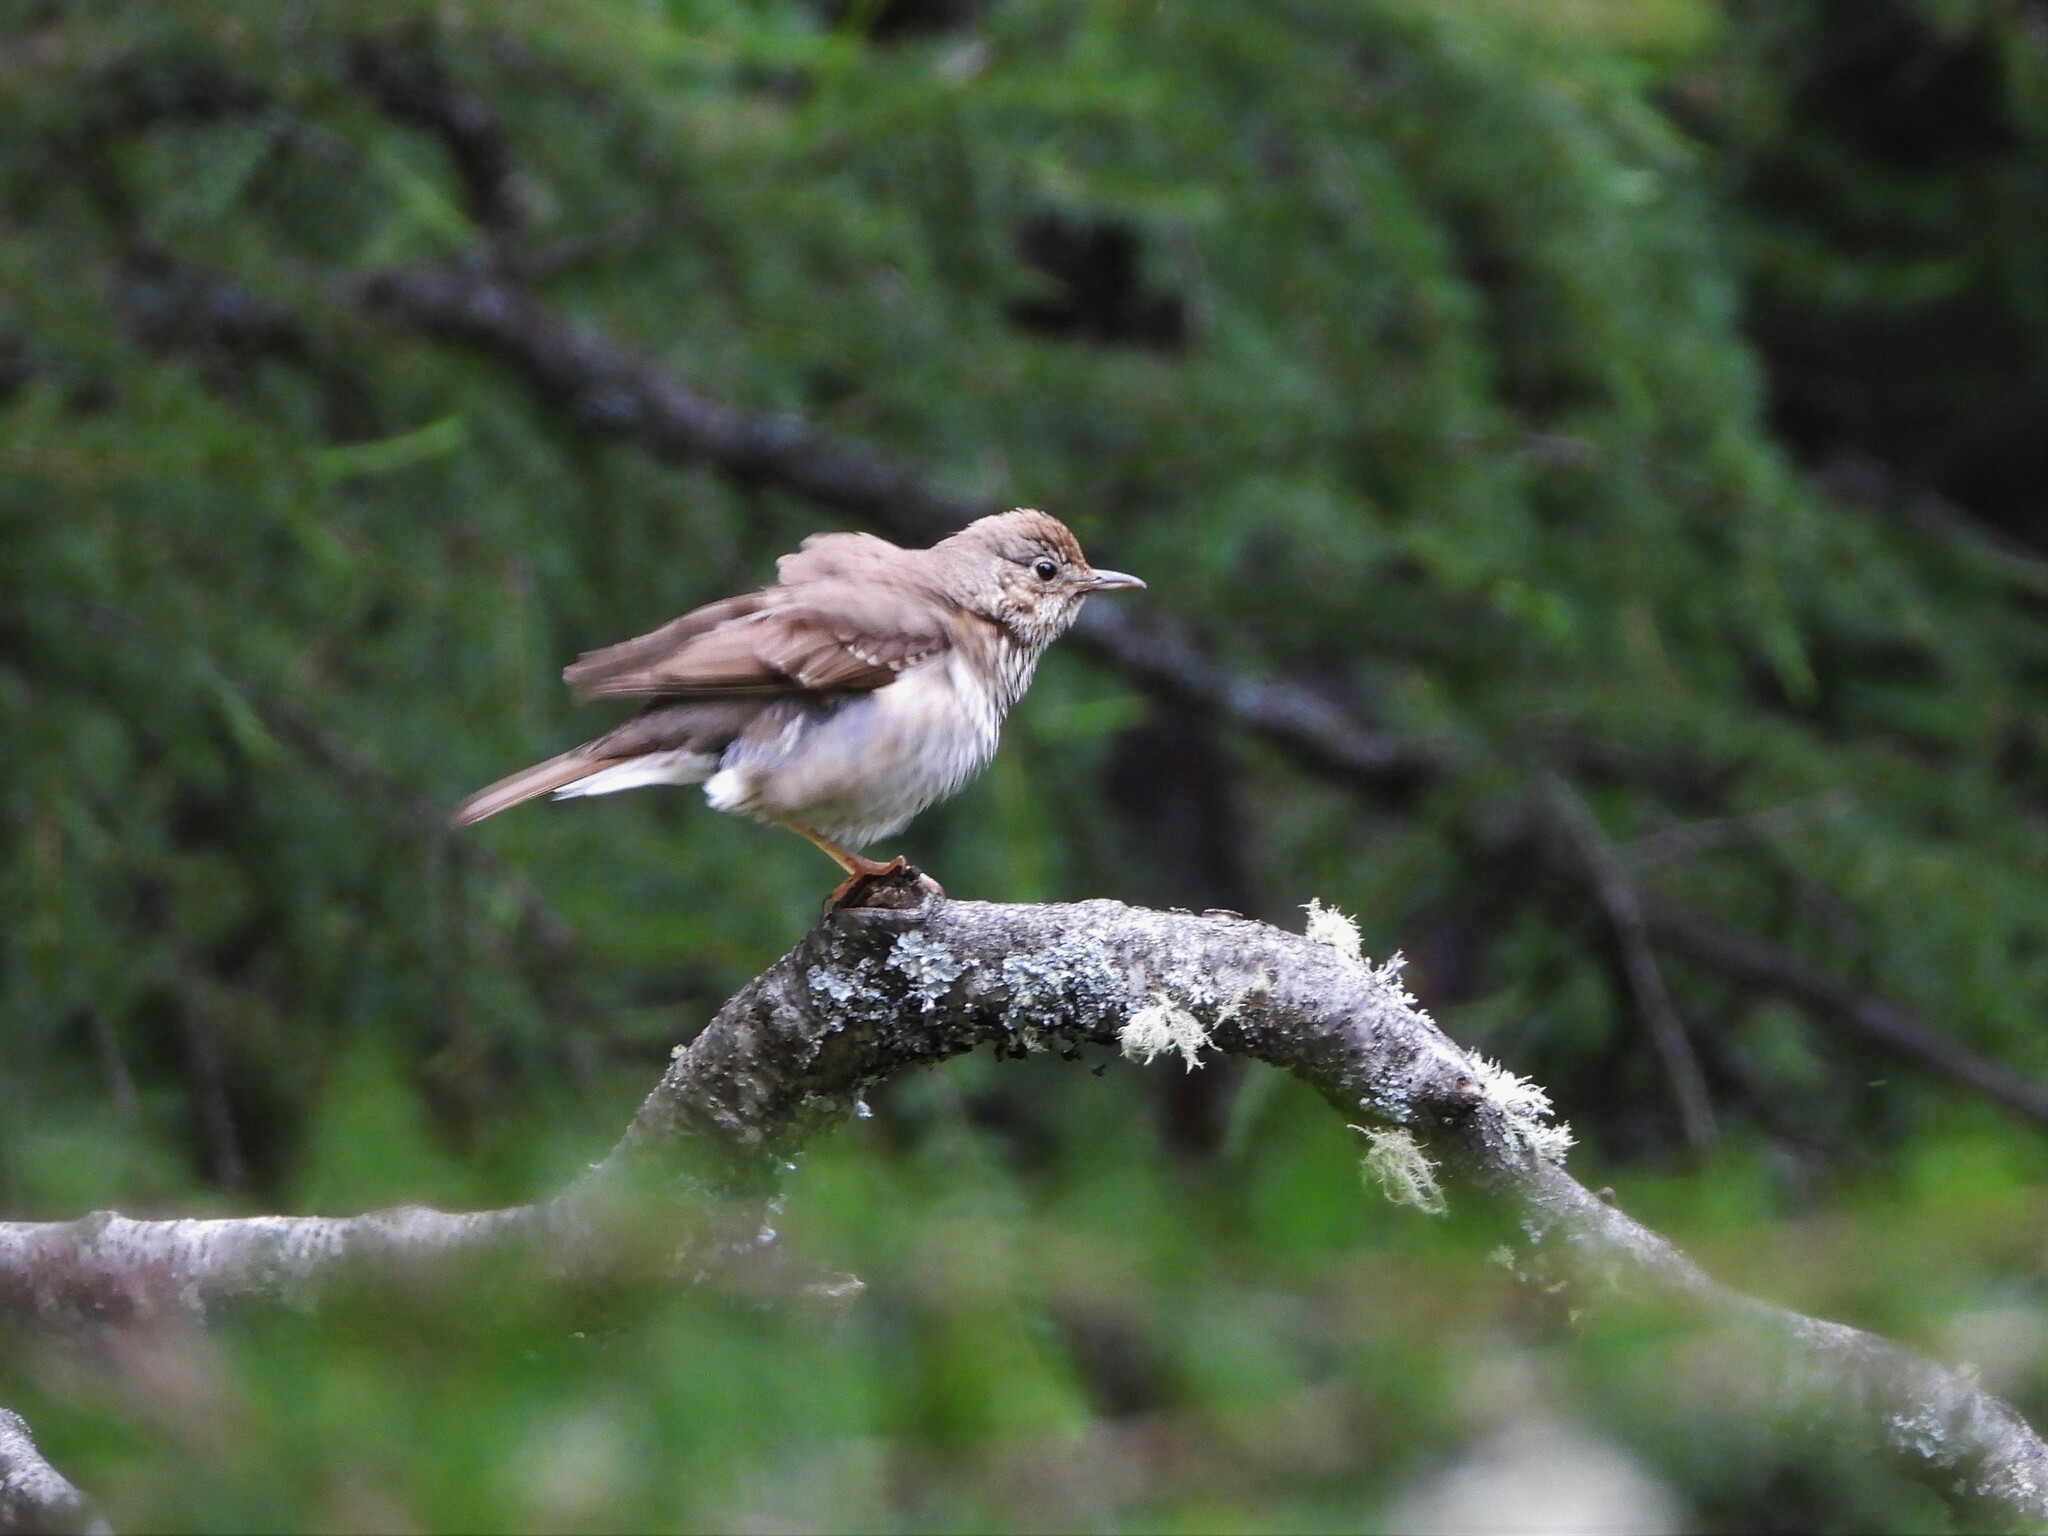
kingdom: Animalia
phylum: Chordata
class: Aves
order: Passeriformes
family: Turdidae
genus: Turdus
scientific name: Turdus philomelos
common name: Song thrush
